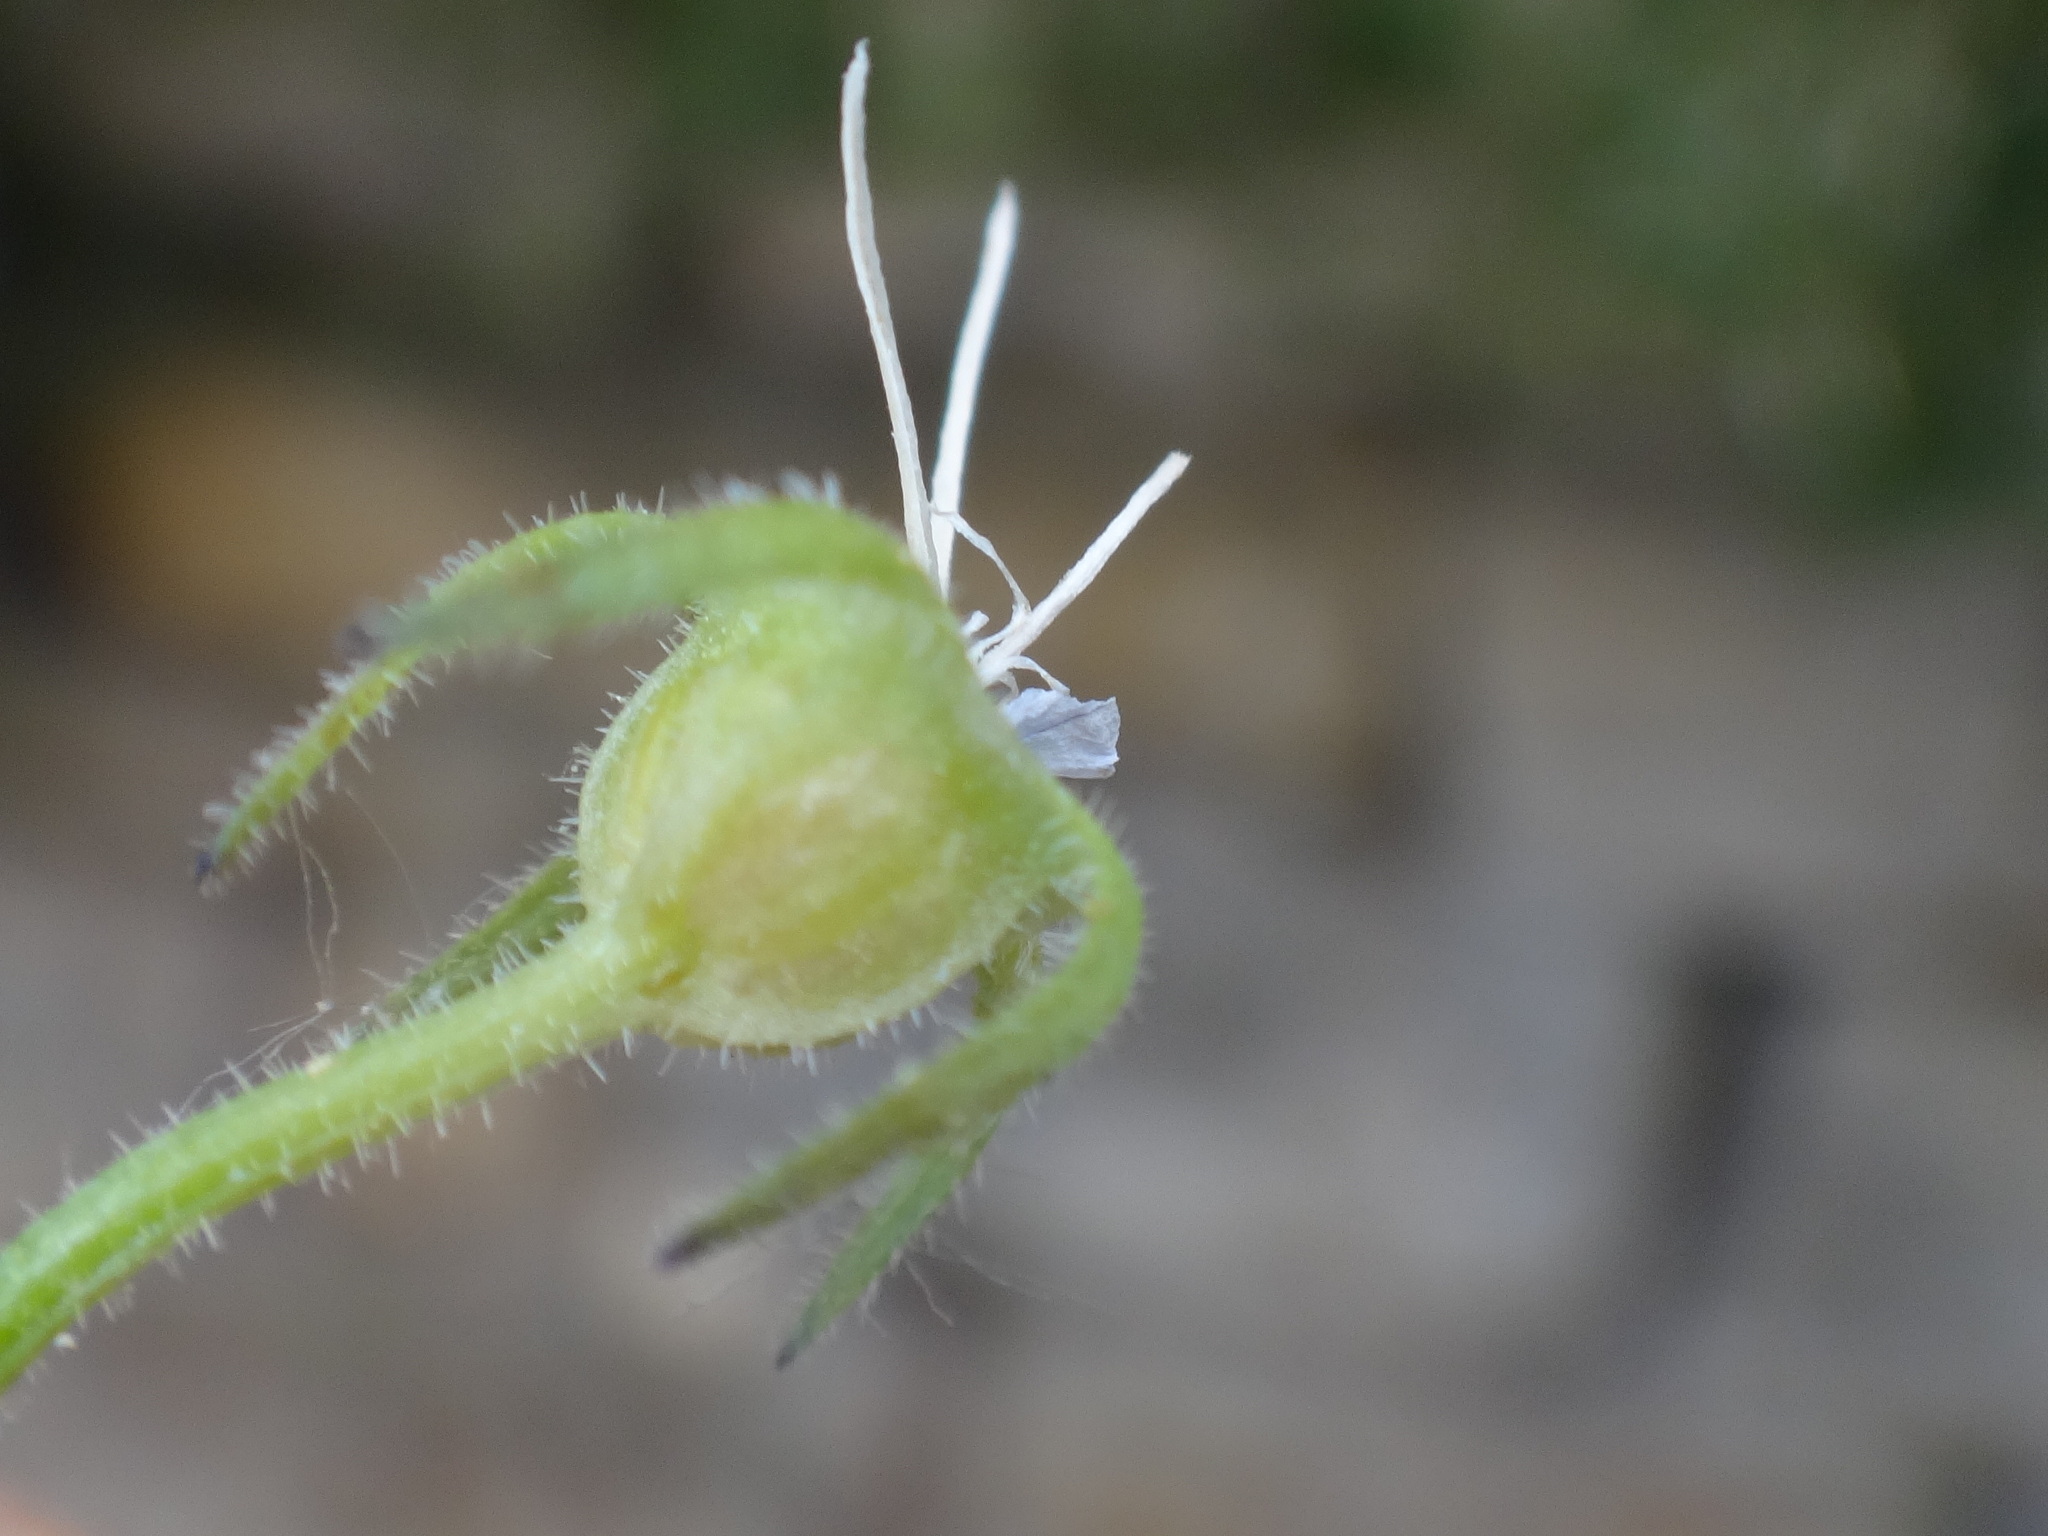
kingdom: Plantae
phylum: Tracheophyta
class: Magnoliopsida
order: Asterales
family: Campanulaceae
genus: Campanula
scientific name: Campanula poscharskyana
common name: Trailing bellflower
